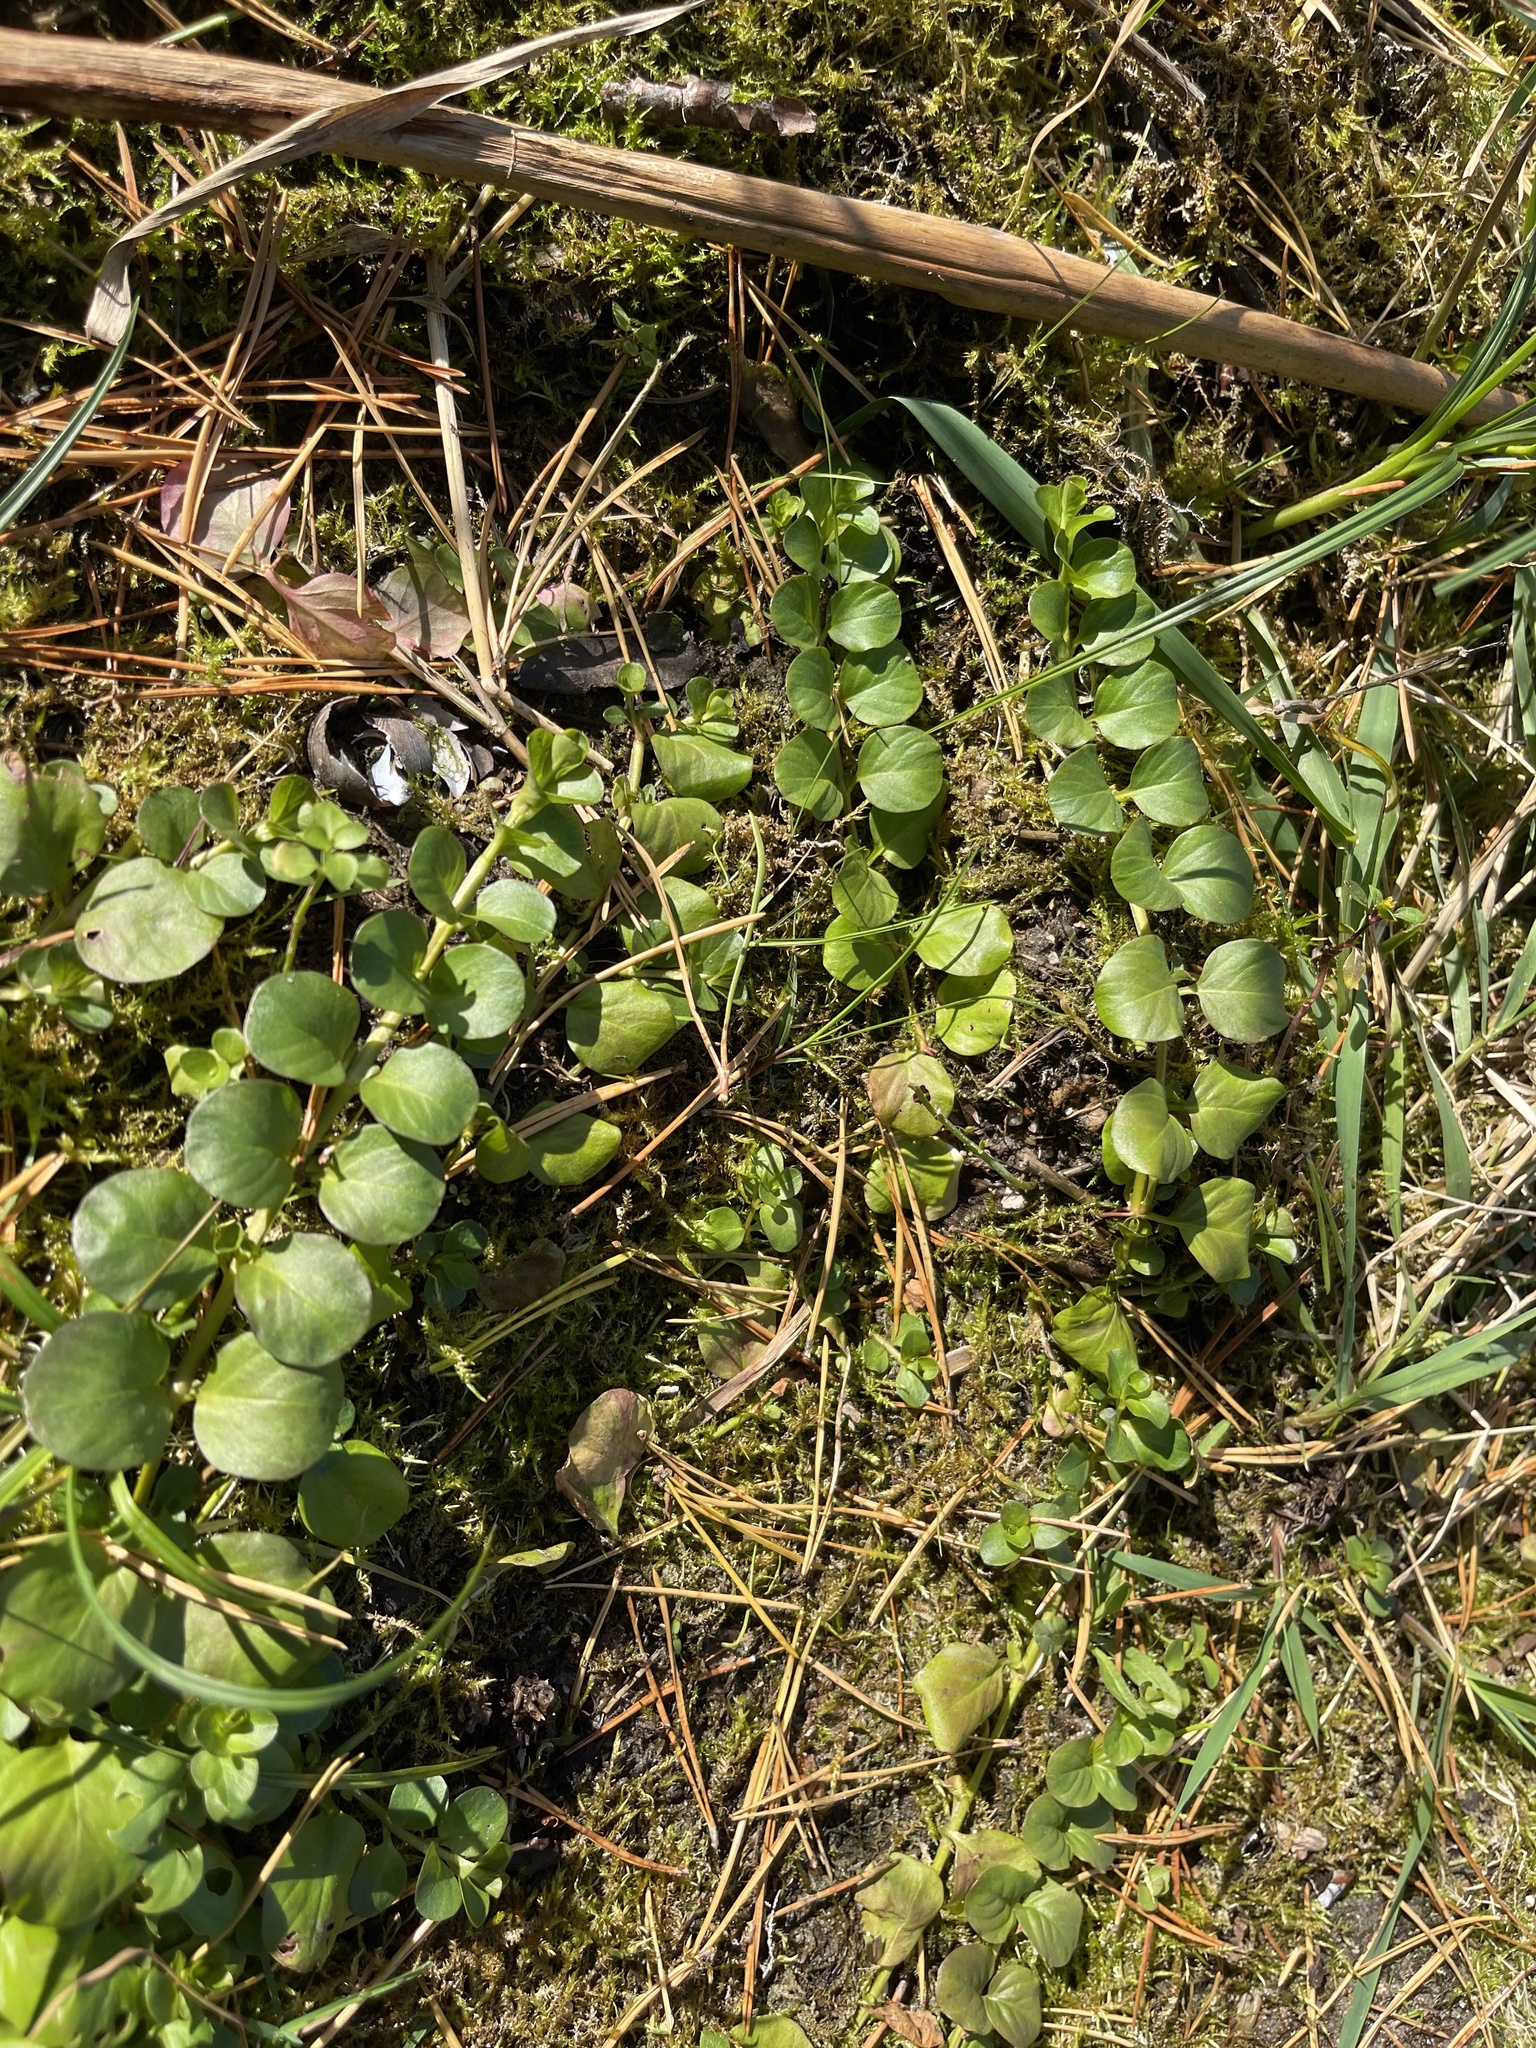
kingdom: Plantae
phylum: Tracheophyta
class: Magnoliopsida
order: Ericales
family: Primulaceae
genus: Lysimachia
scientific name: Lysimachia nummularia
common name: Moneywort
